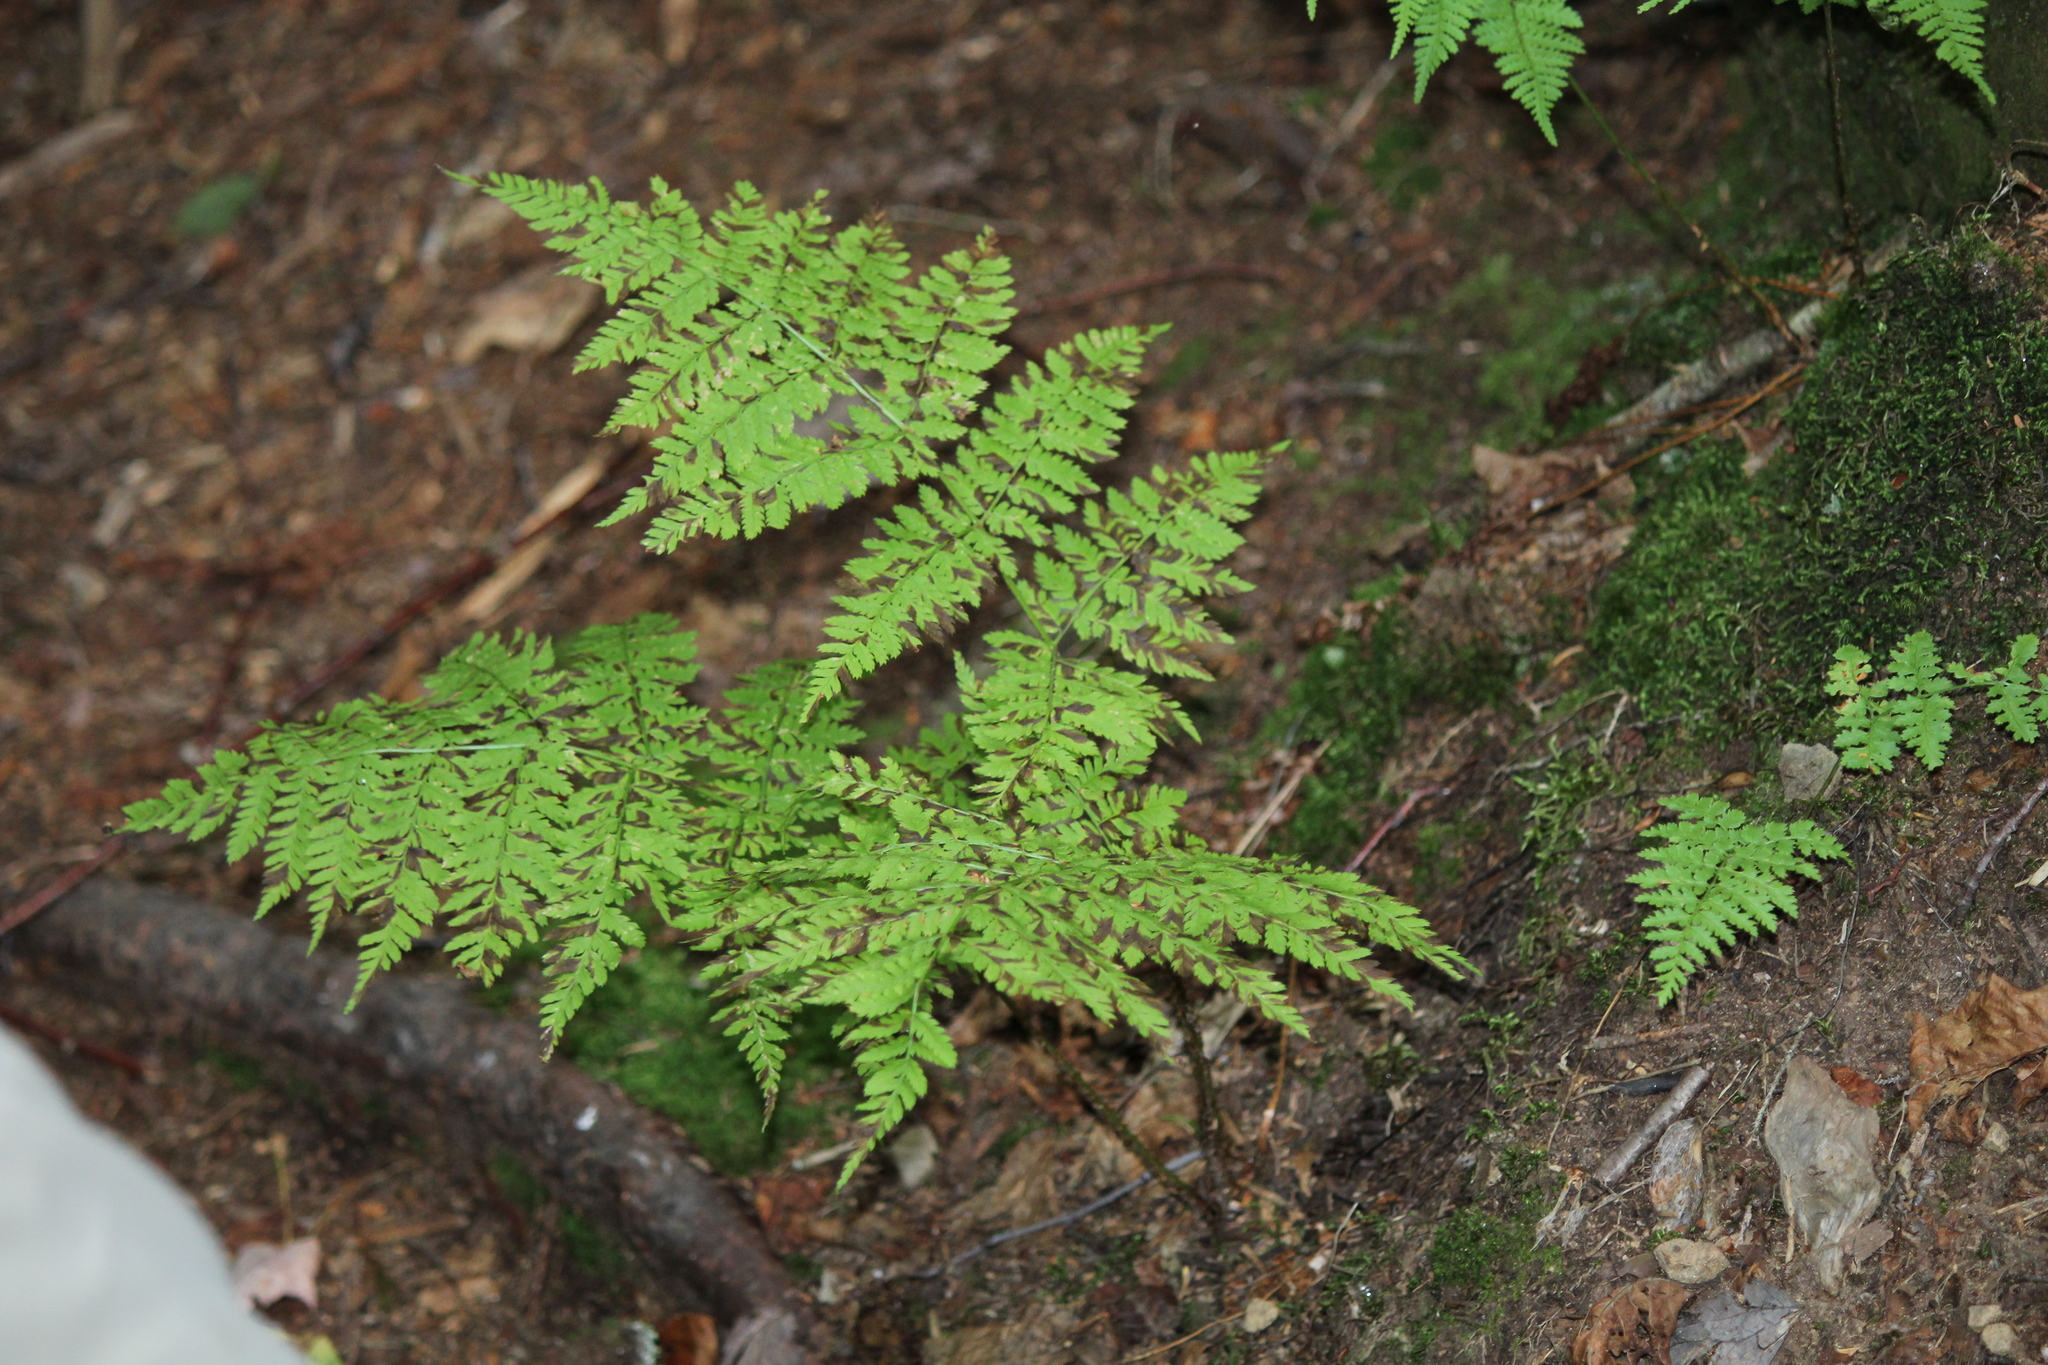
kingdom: Plantae
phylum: Tracheophyta
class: Polypodiopsida
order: Polypodiales
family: Dryopteridaceae
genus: Dryopteris
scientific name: Dryopteris campyloptera
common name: Mountain wood fern
